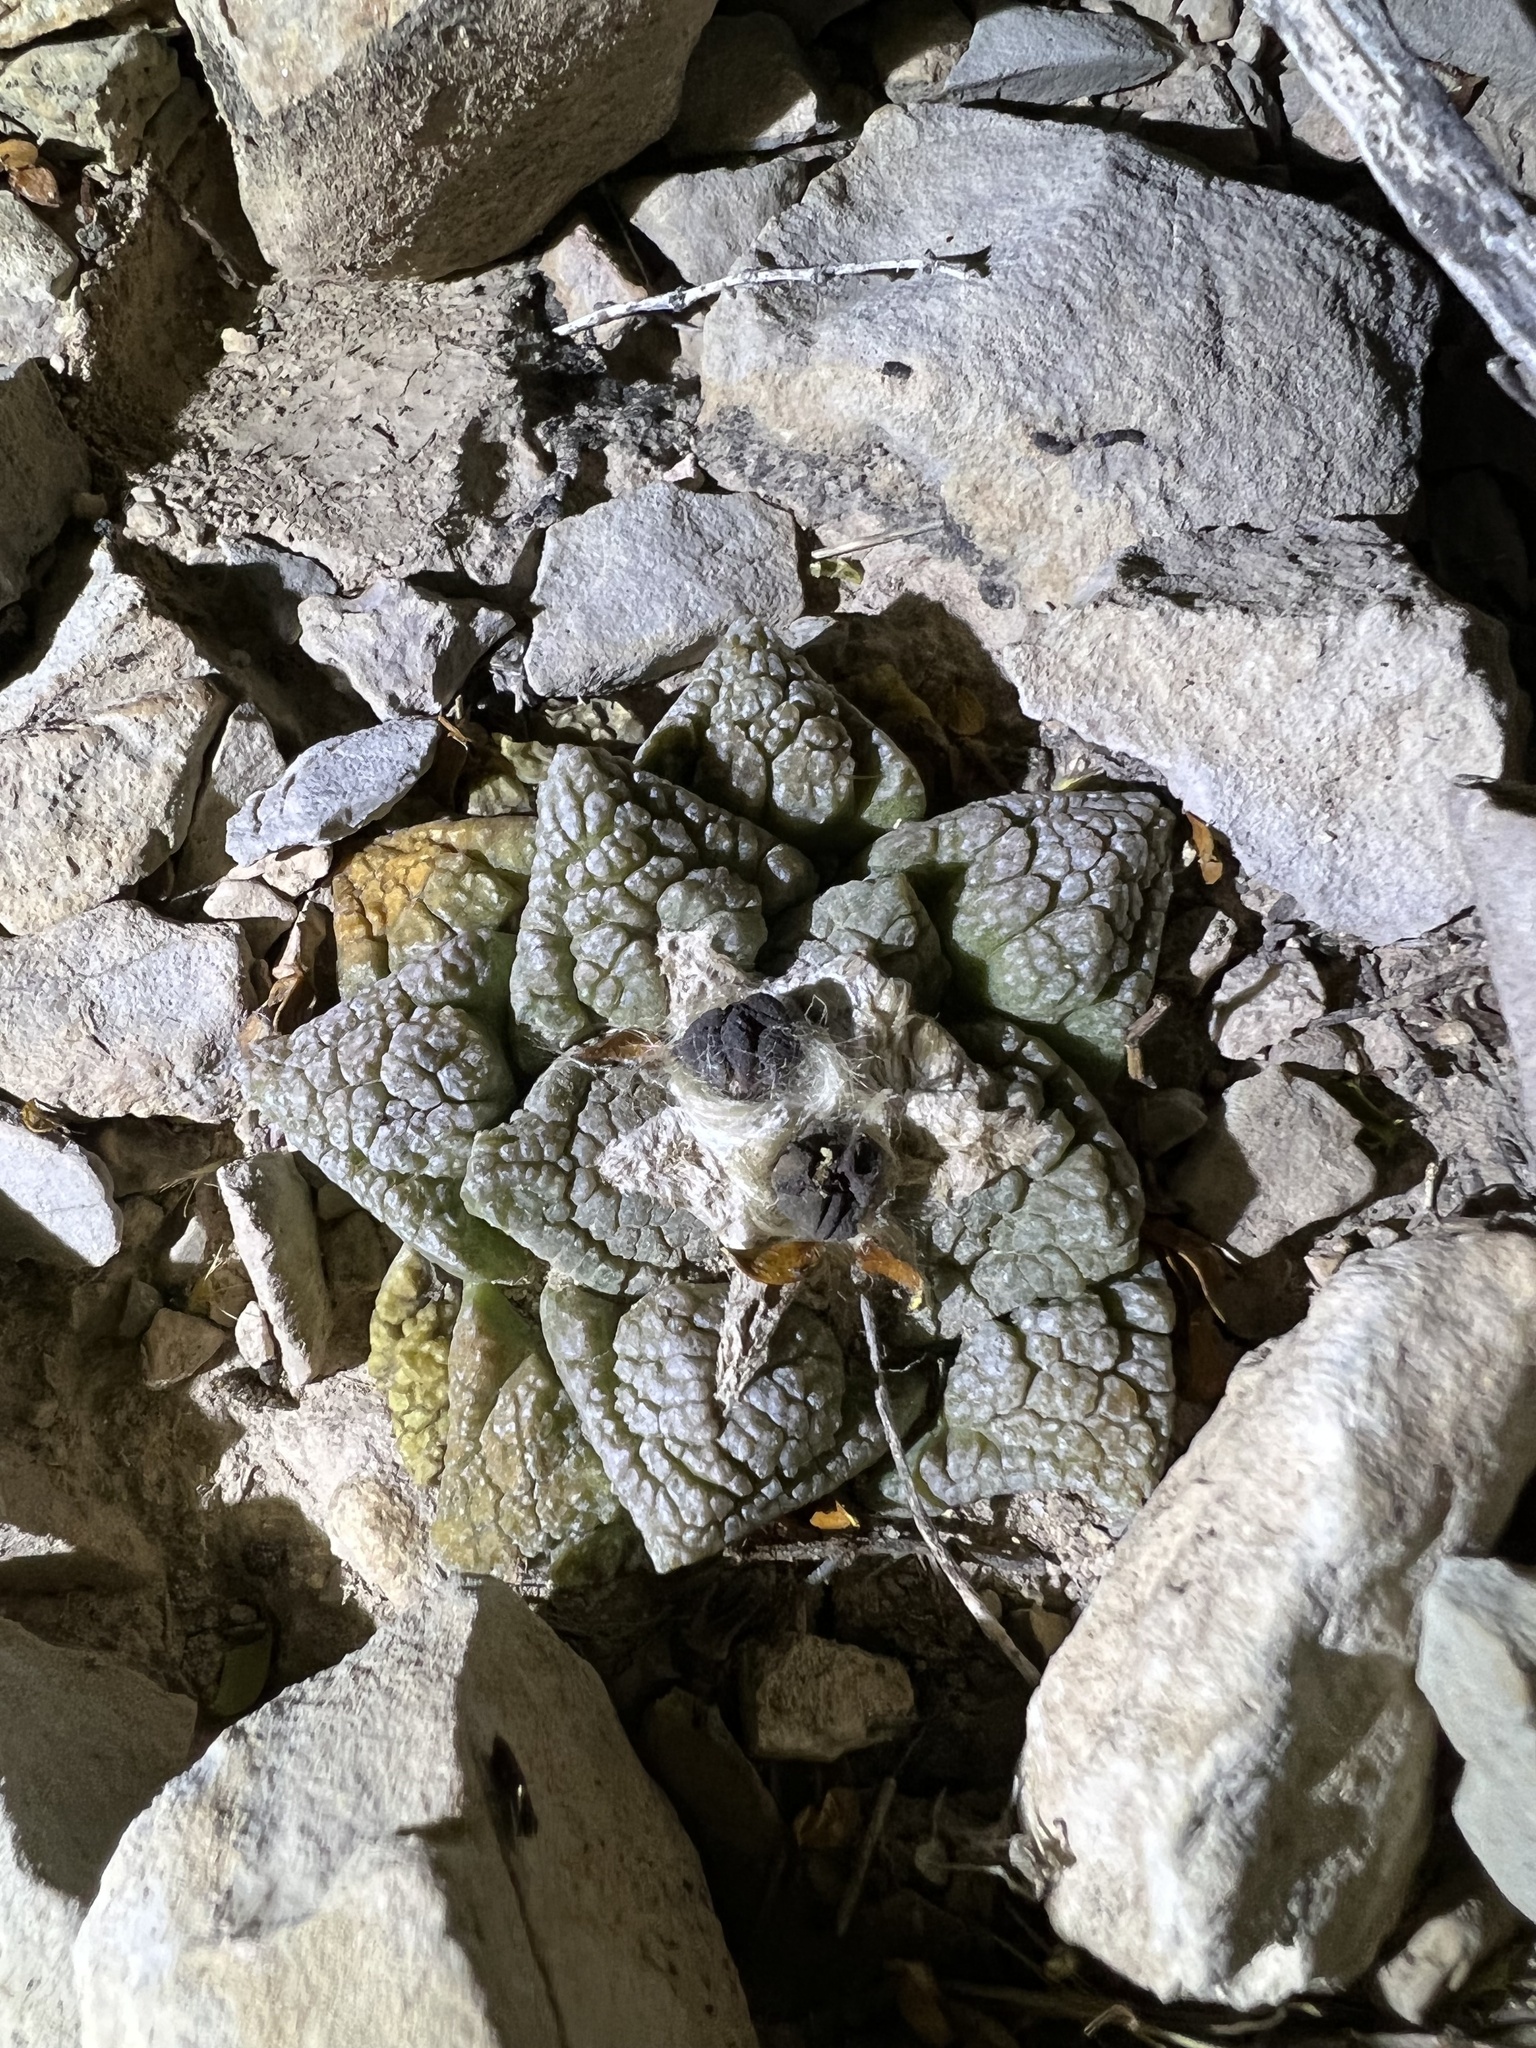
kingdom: Plantae
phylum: Tracheophyta
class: Magnoliopsida
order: Caryophyllales
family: Cactaceae
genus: Ariocarpus
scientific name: Ariocarpus fissuratus
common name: Chautle-living rock
